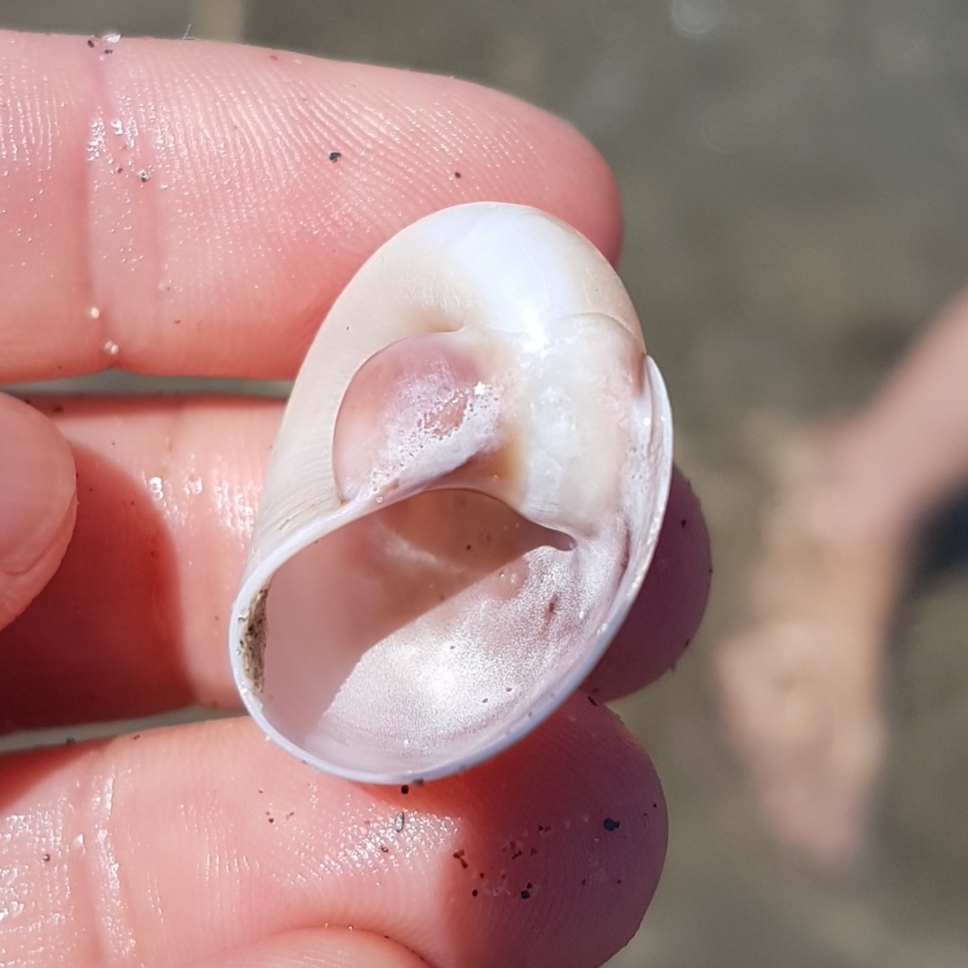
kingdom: Animalia
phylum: Mollusca
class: Gastropoda
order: Littorinimorpha
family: Naticidae
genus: Neverita
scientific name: Neverita josephinia
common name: Josephine's moonsnail
